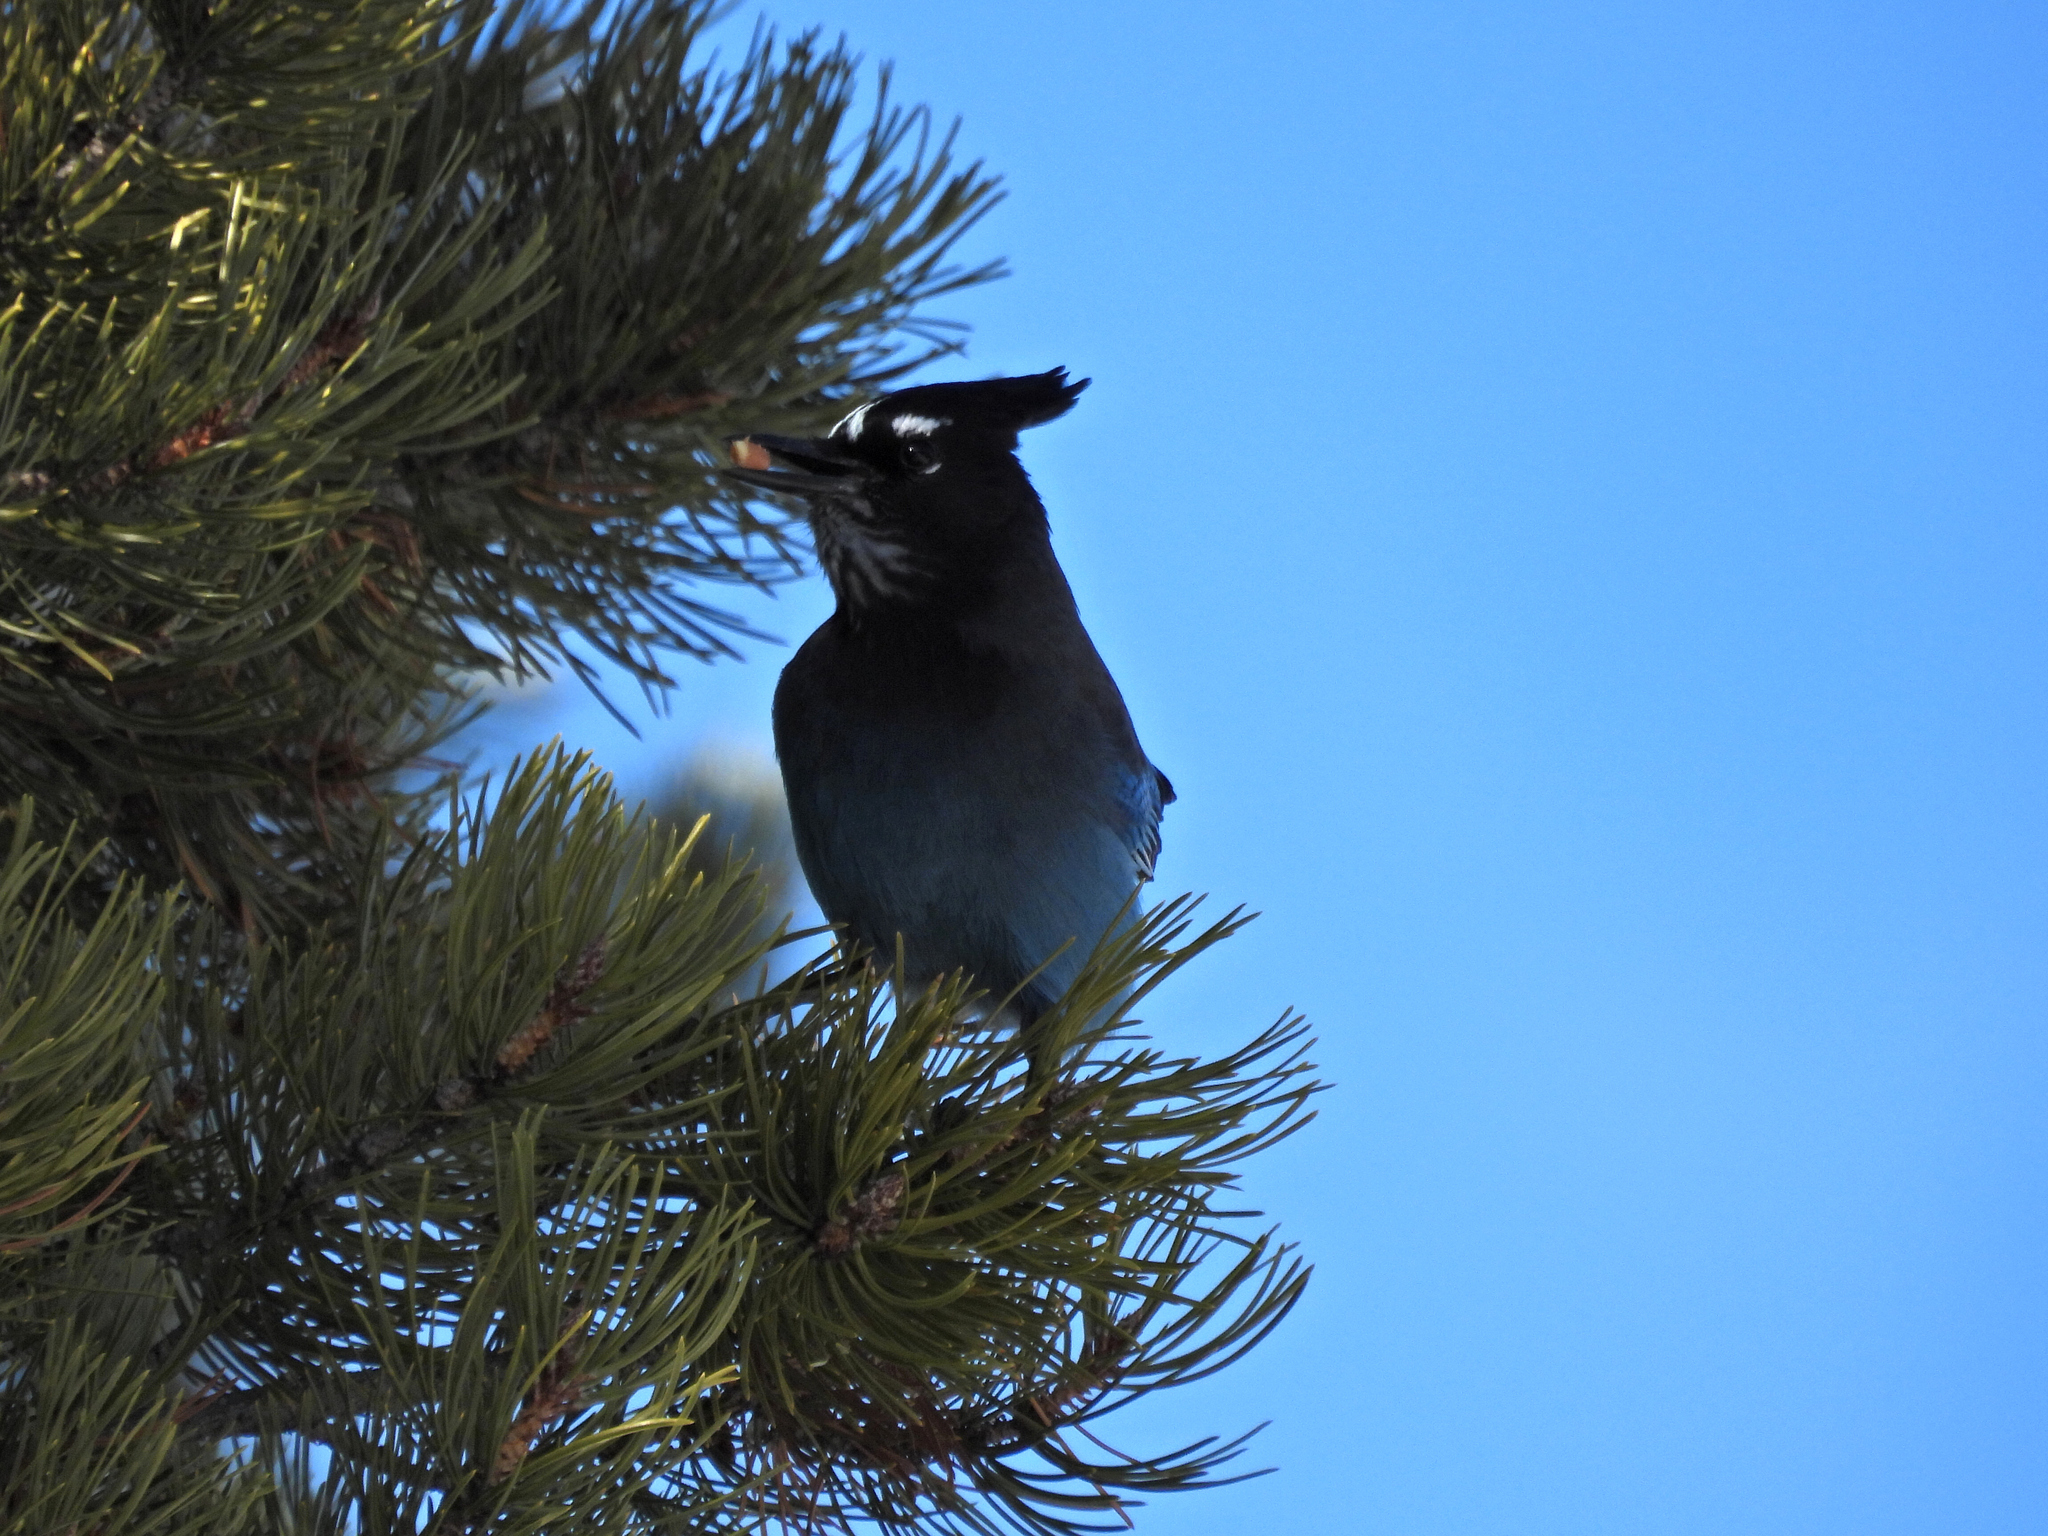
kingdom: Animalia
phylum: Chordata
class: Aves
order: Passeriformes
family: Corvidae
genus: Cyanocitta
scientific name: Cyanocitta stelleri
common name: Steller's jay
